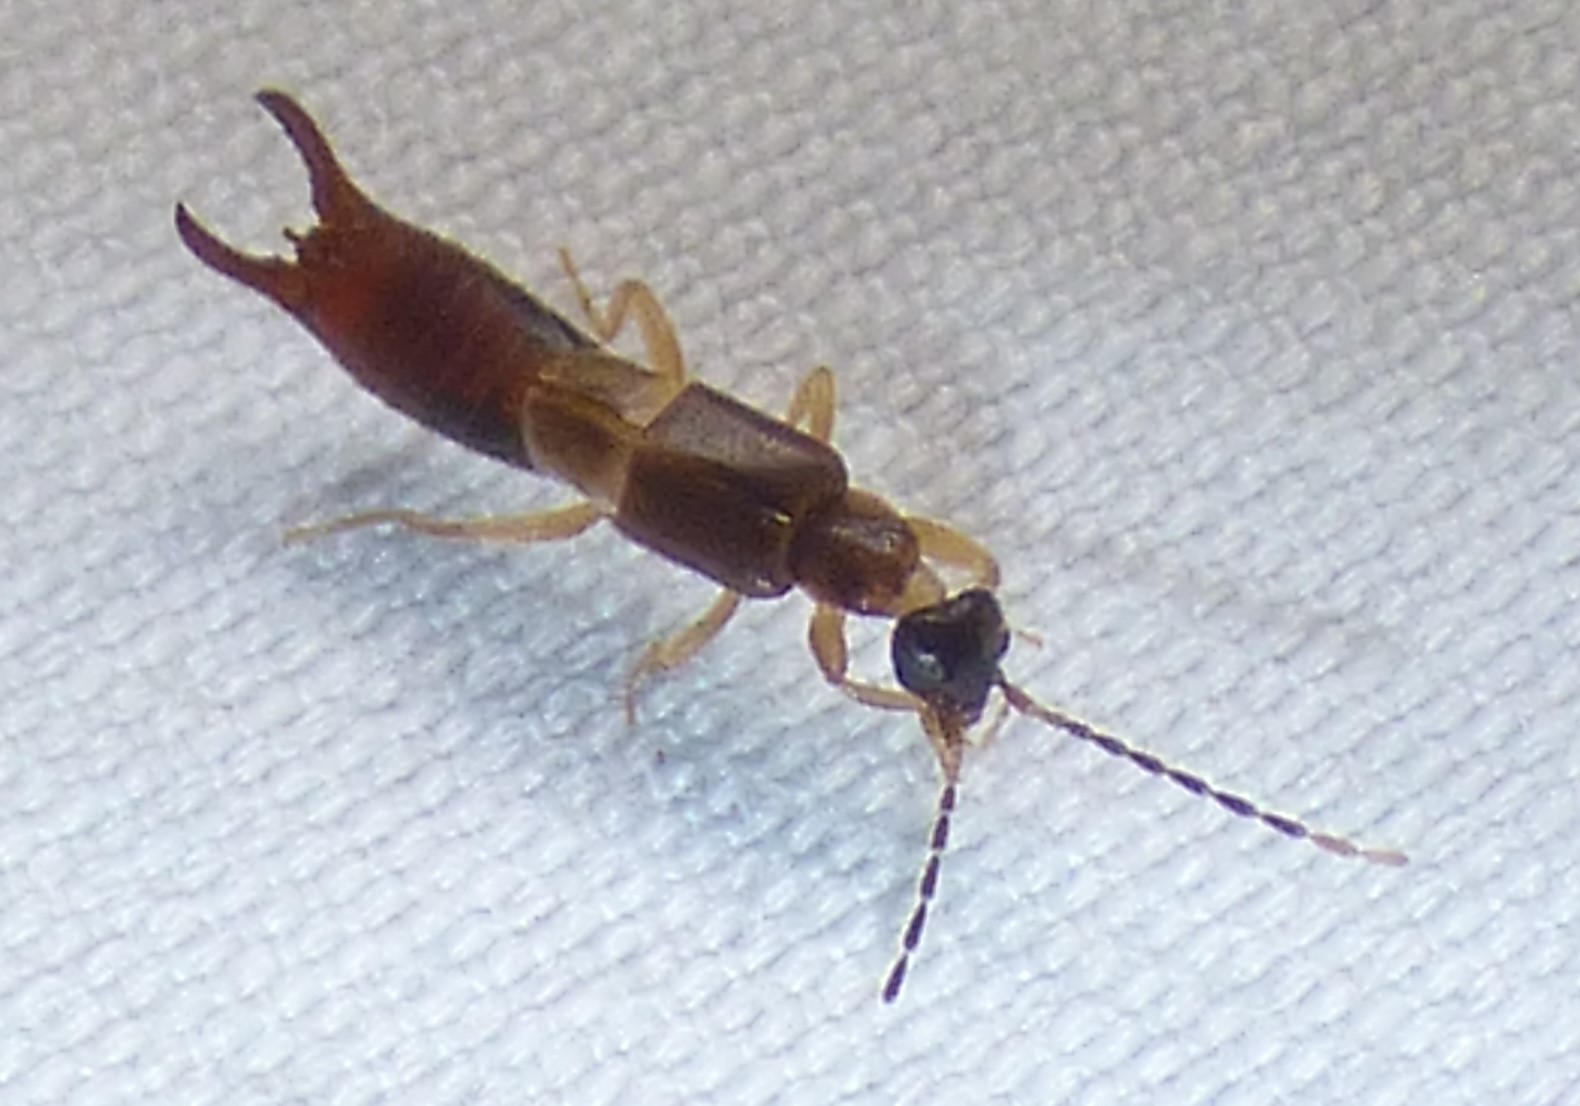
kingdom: Animalia
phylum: Arthropoda
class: Insecta
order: Dermaptera
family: Spongiphoridae
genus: Labia
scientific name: Labia minor
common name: Lesser earwig
